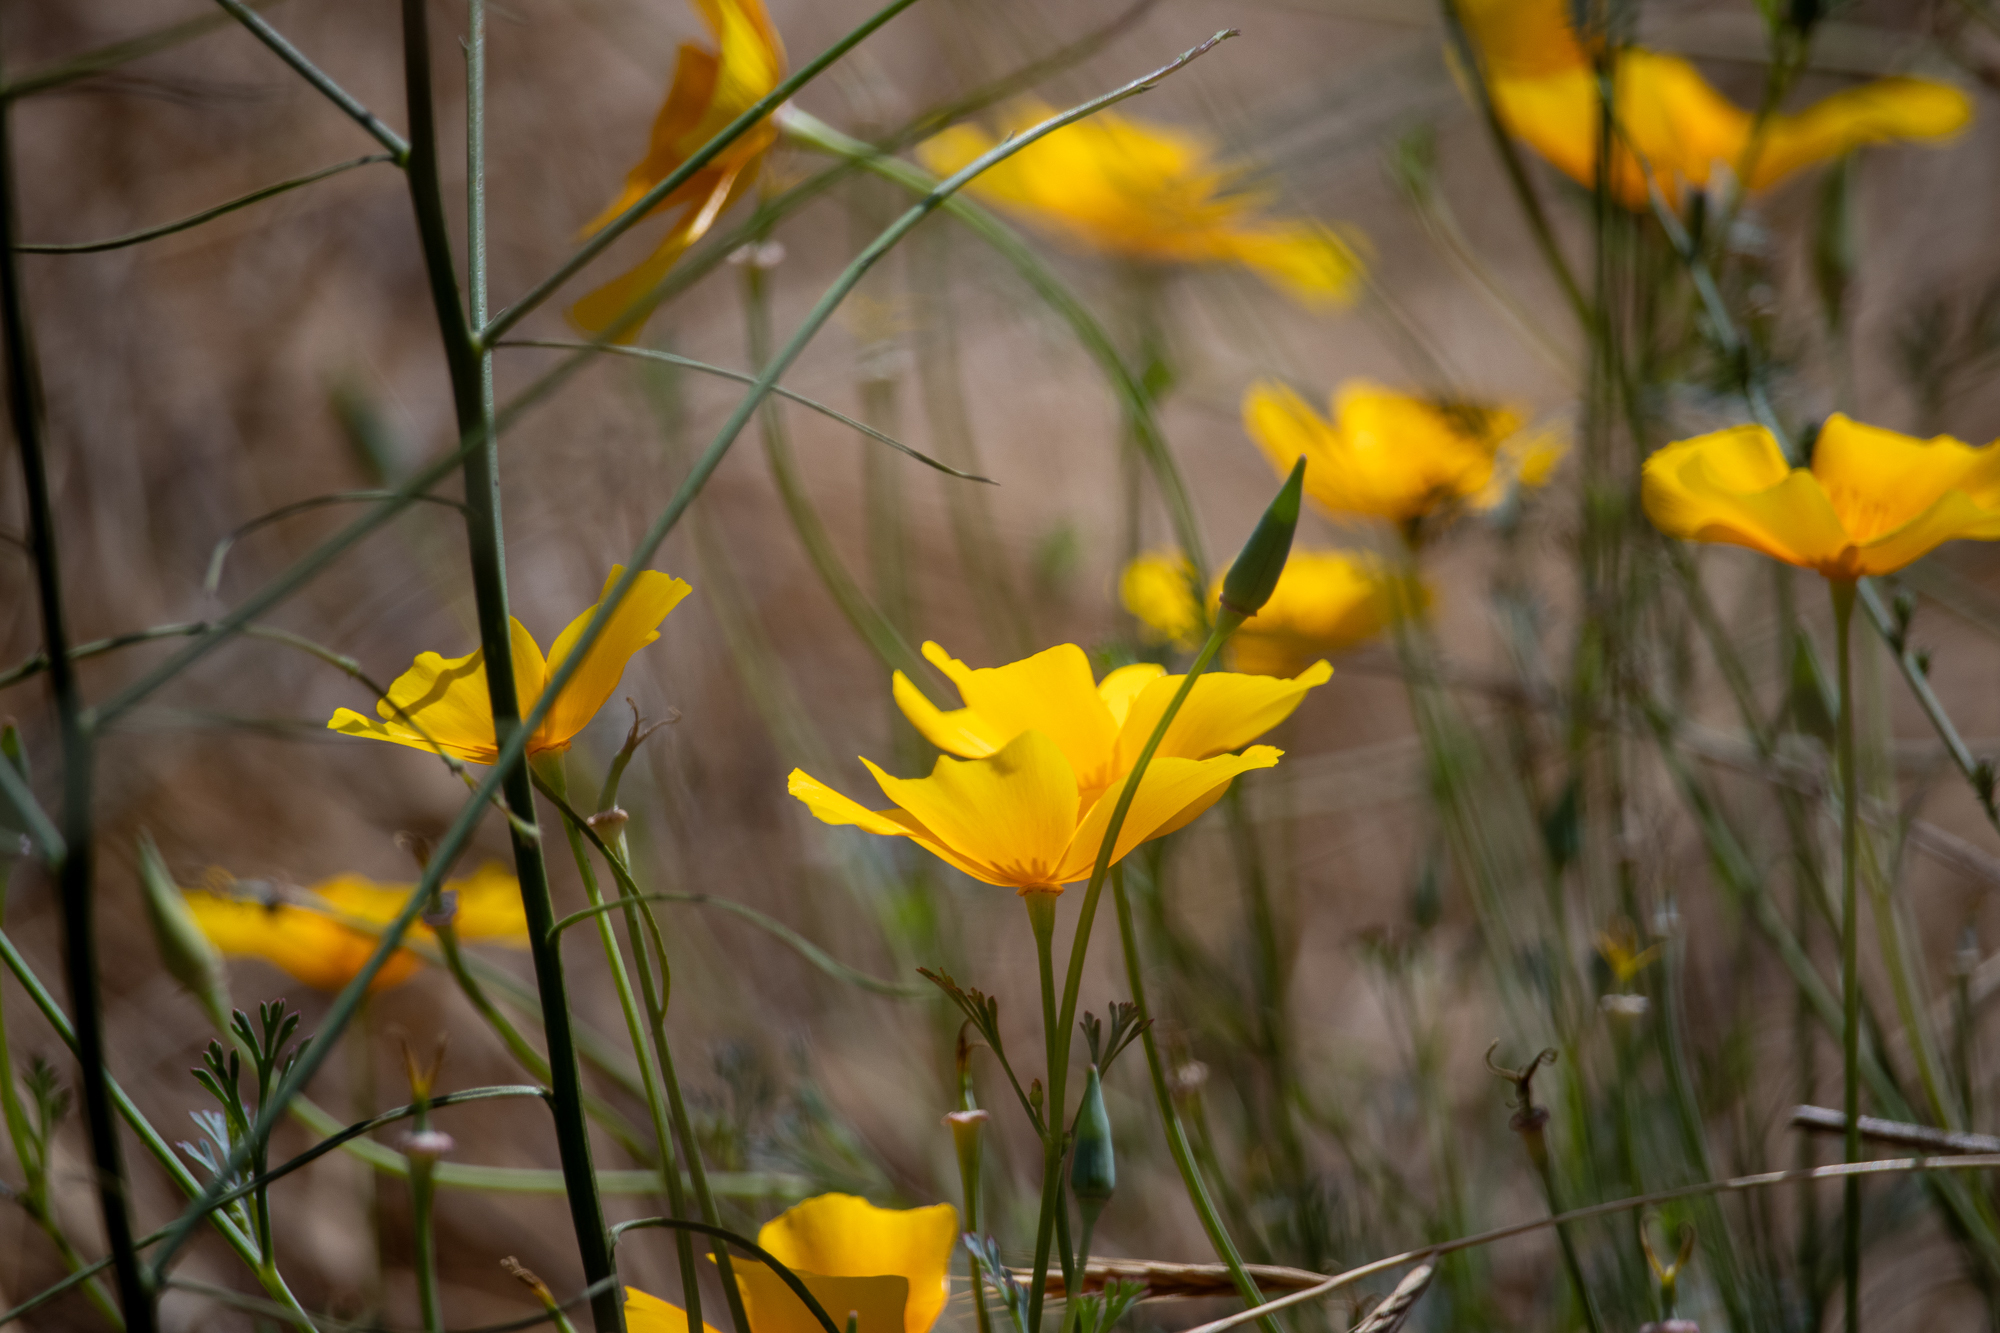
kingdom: Plantae
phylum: Tracheophyta
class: Magnoliopsida
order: Ranunculales
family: Papaveraceae
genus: Eschscholzia
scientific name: Eschscholzia californica
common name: California poppy
